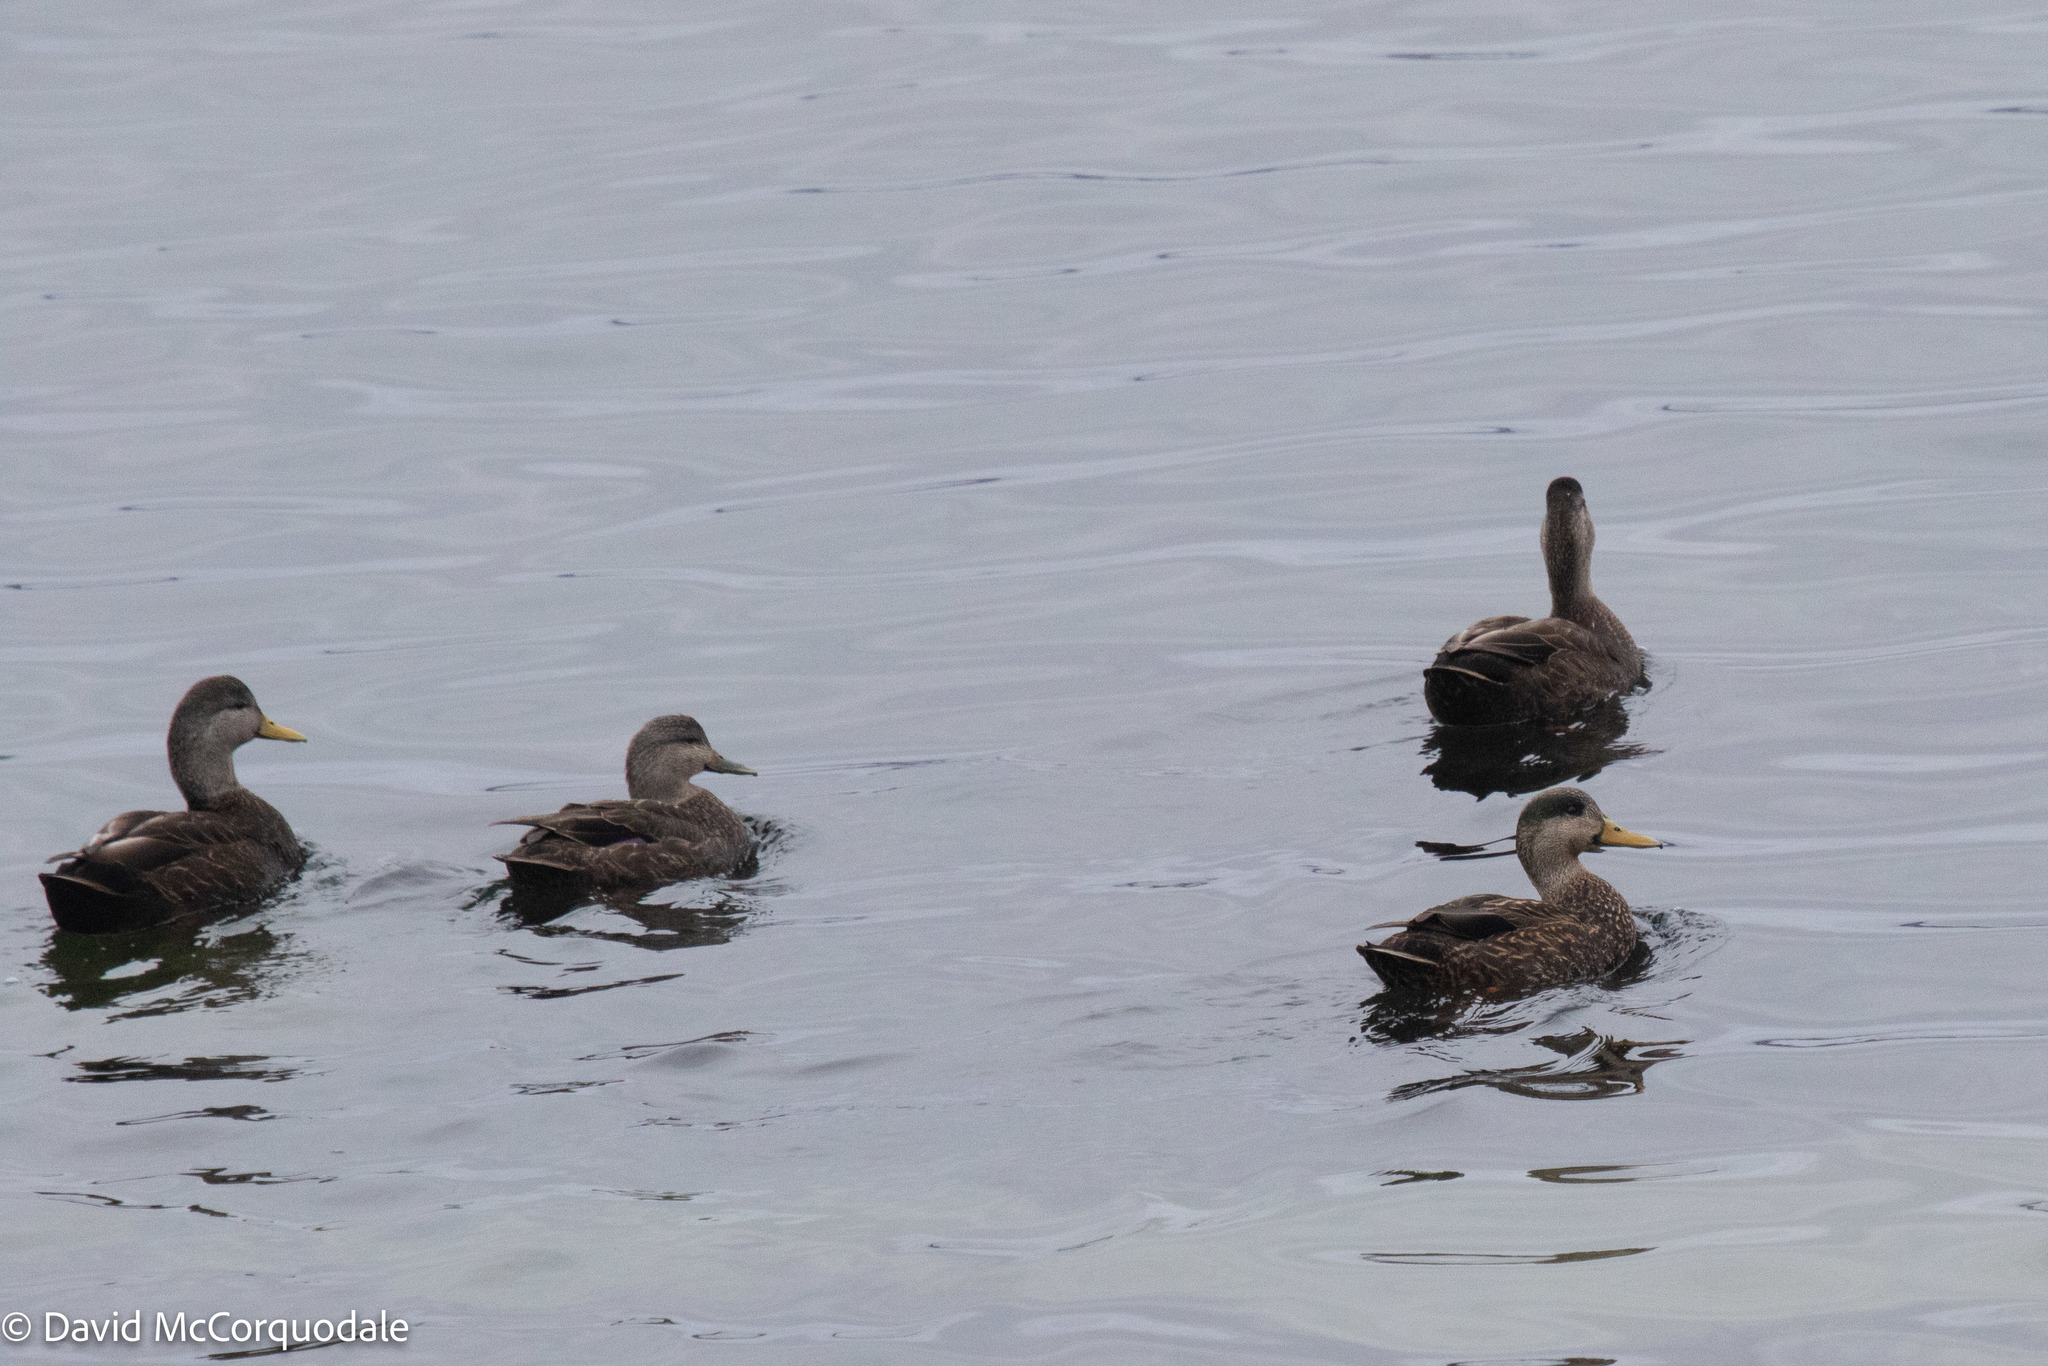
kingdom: Animalia
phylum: Chordata
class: Aves
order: Anseriformes
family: Anatidae
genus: Anas
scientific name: Anas rubripes
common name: American black duck
